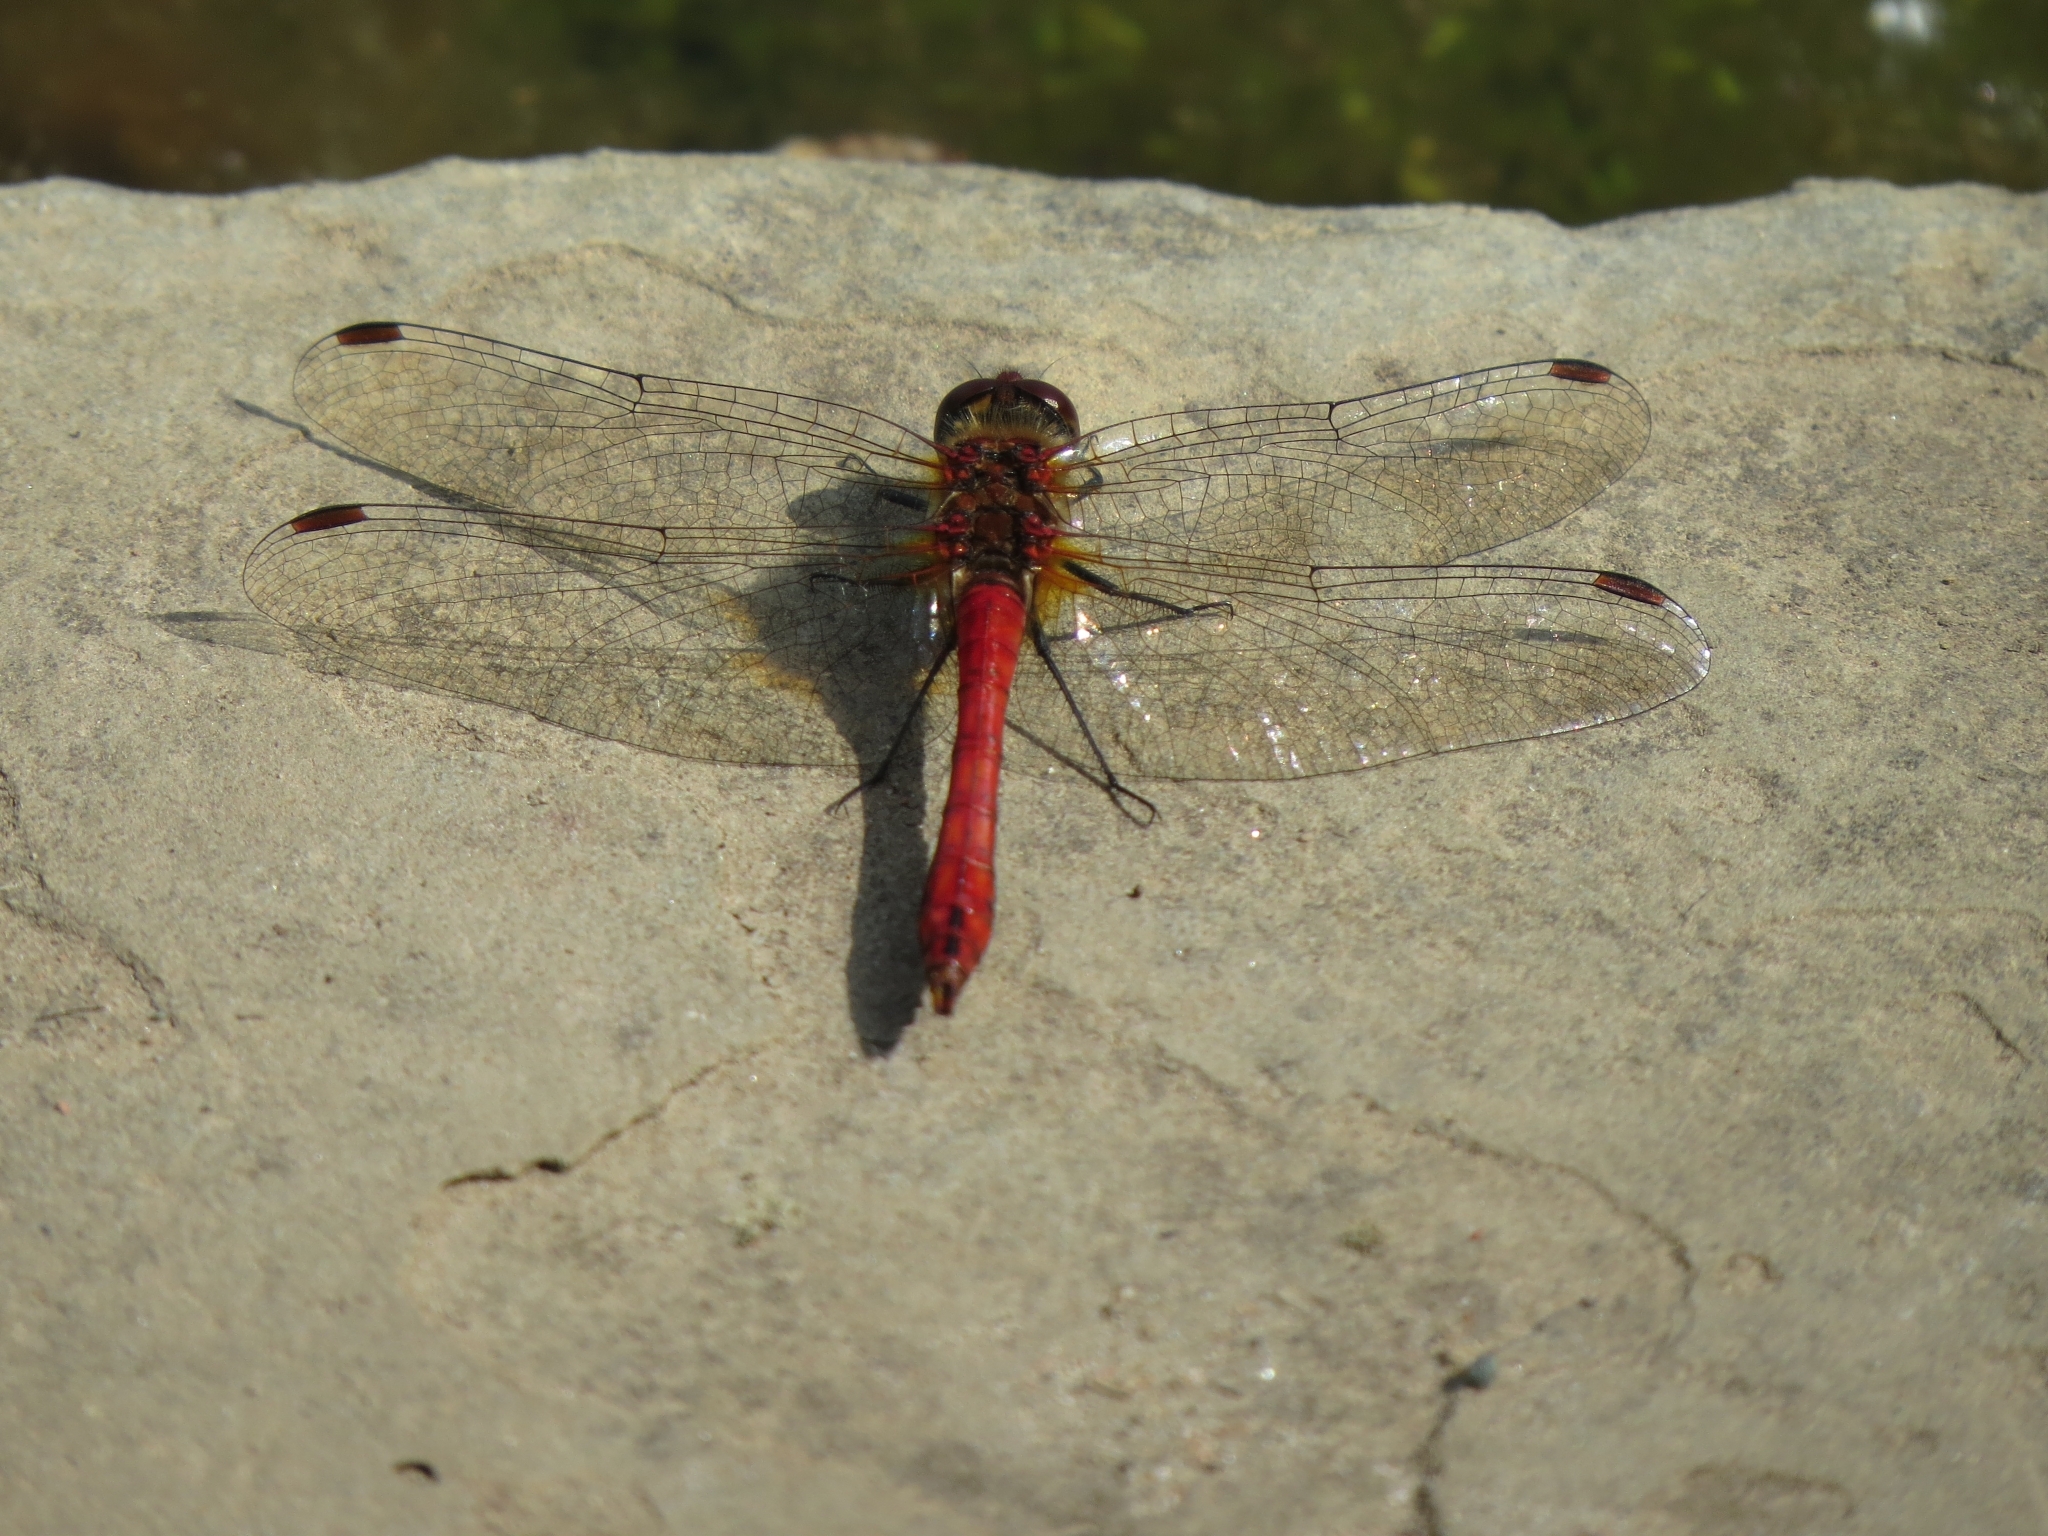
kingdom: Animalia
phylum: Arthropoda
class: Insecta
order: Odonata
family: Libellulidae
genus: Sympetrum
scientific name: Sympetrum sanguineum
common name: Ruddy darter
